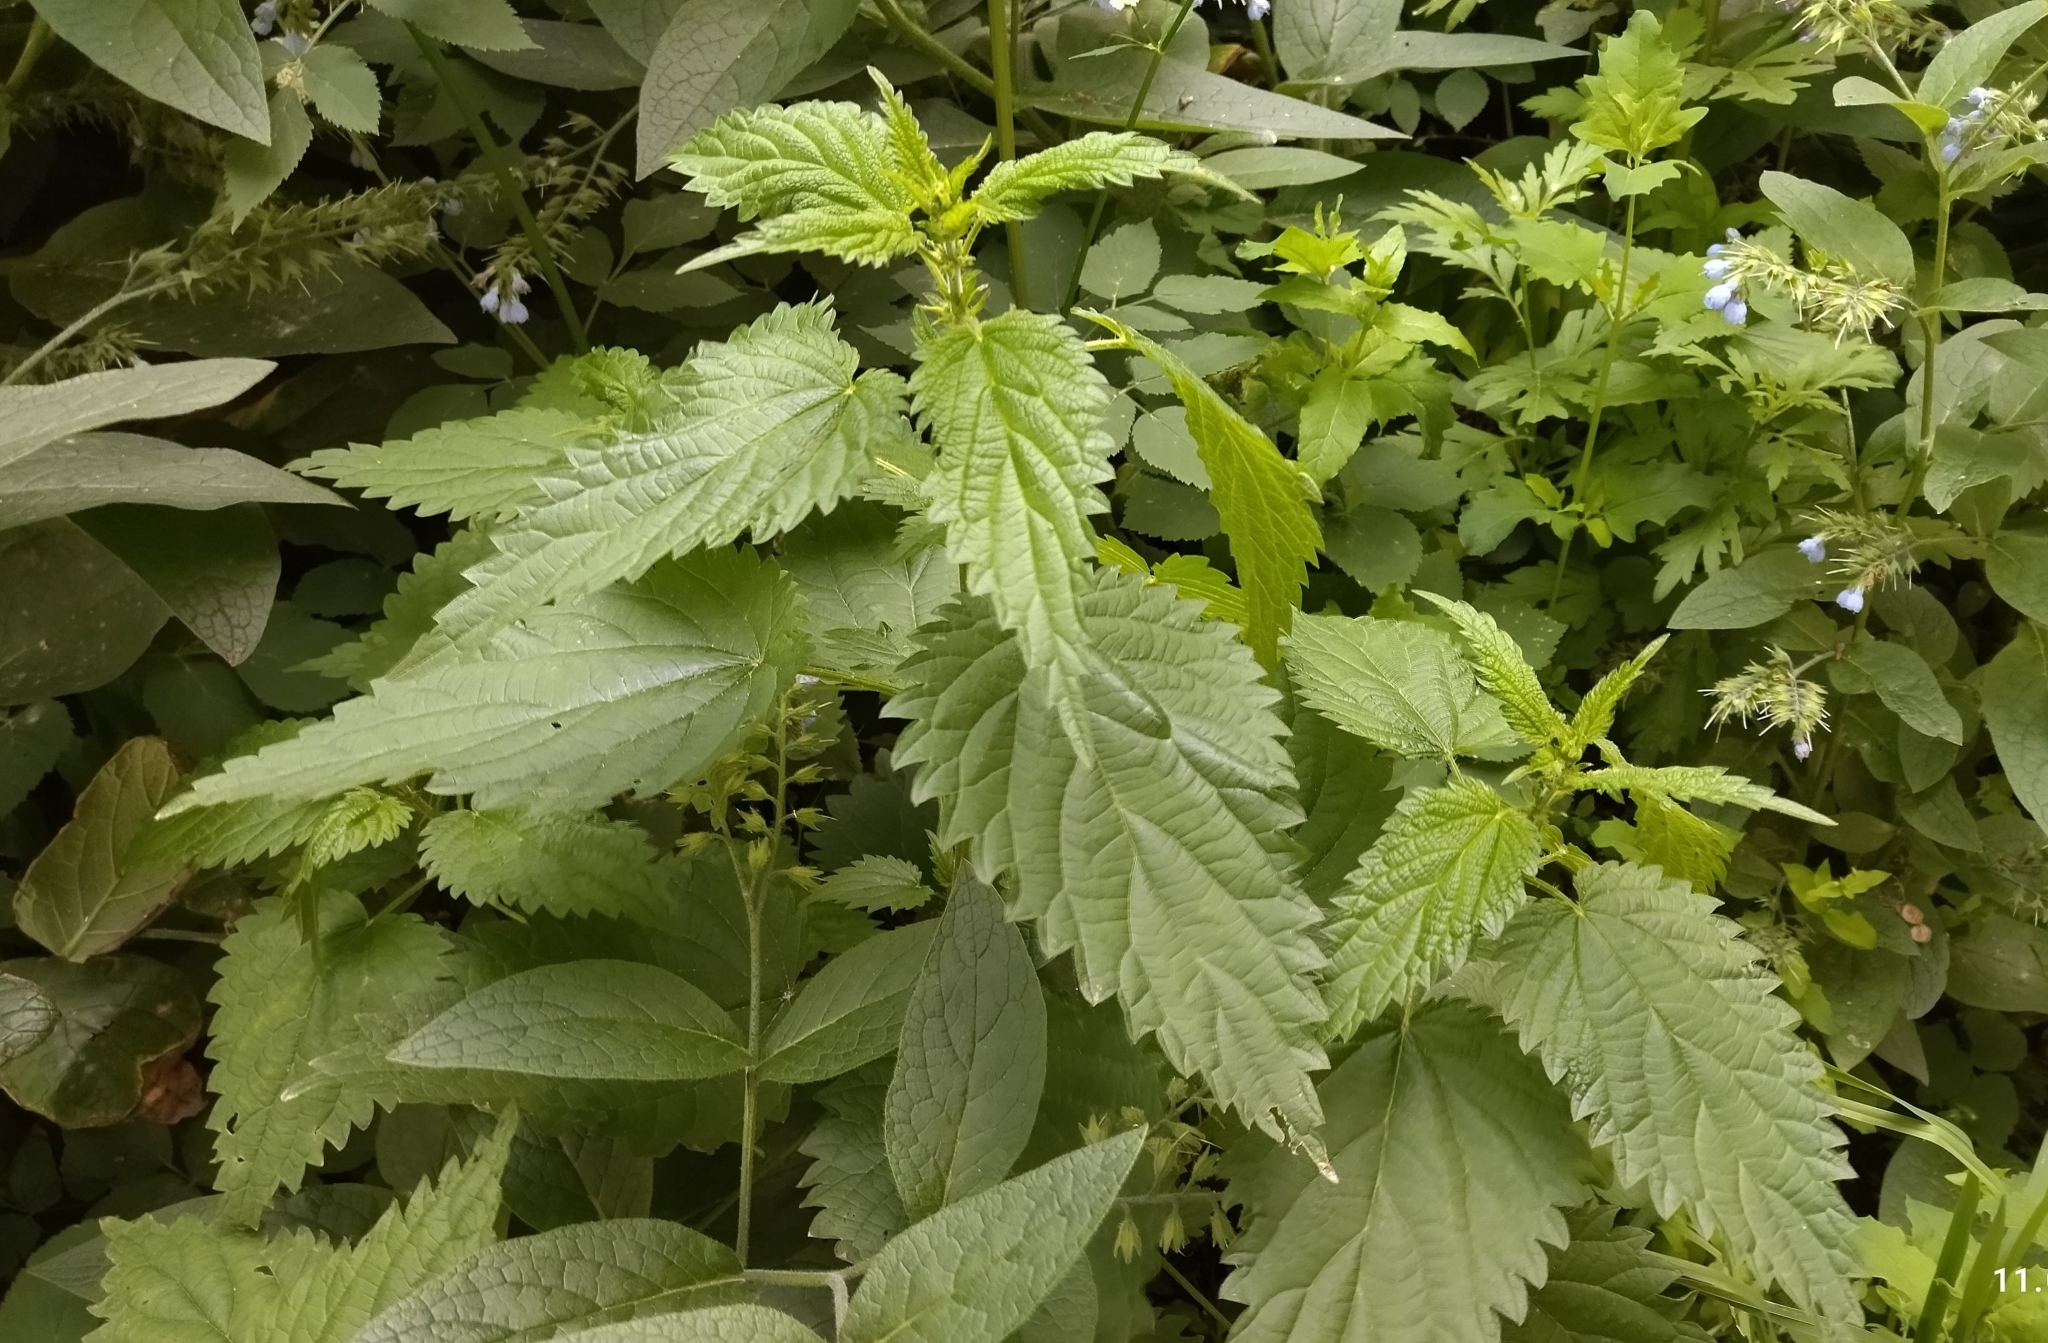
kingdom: Plantae
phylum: Tracheophyta
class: Magnoliopsida
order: Rosales
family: Urticaceae
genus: Urtica
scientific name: Urtica dioica
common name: Common nettle
